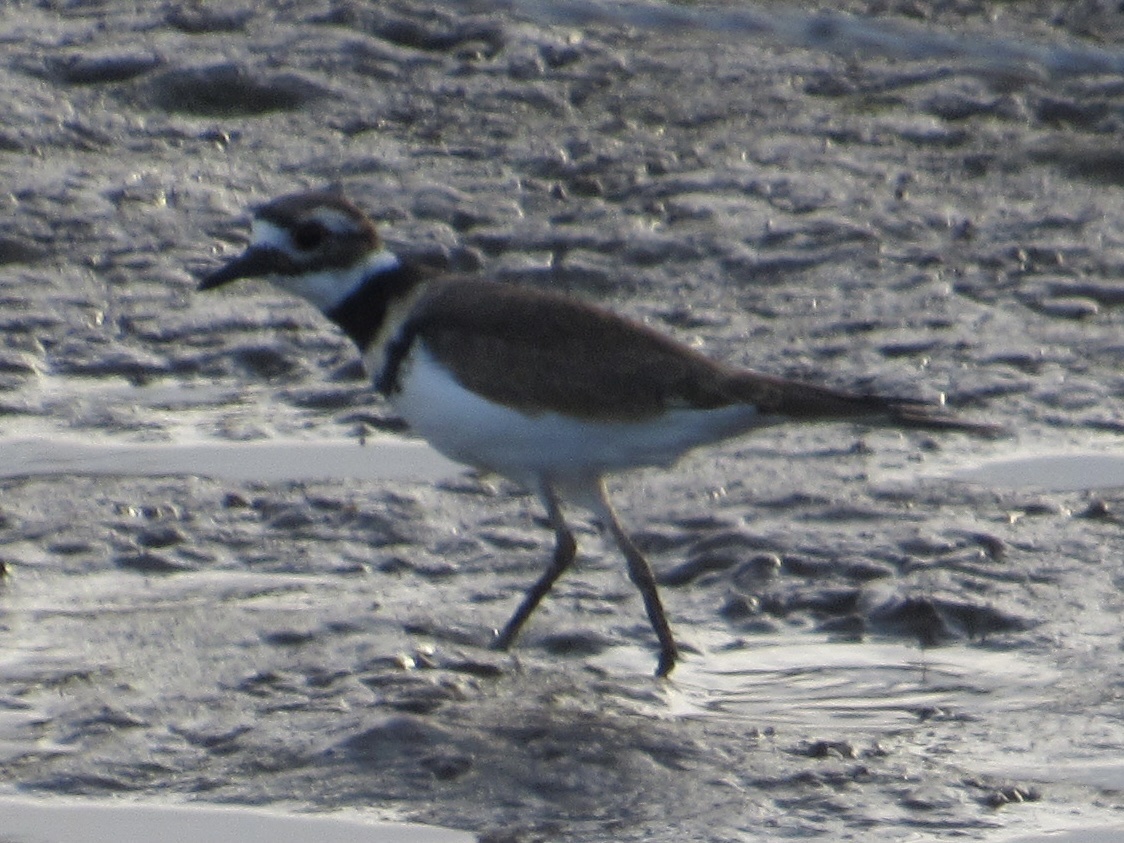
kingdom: Animalia
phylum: Chordata
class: Aves
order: Charadriiformes
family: Charadriidae
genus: Charadrius
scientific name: Charadrius vociferus
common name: Killdeer
